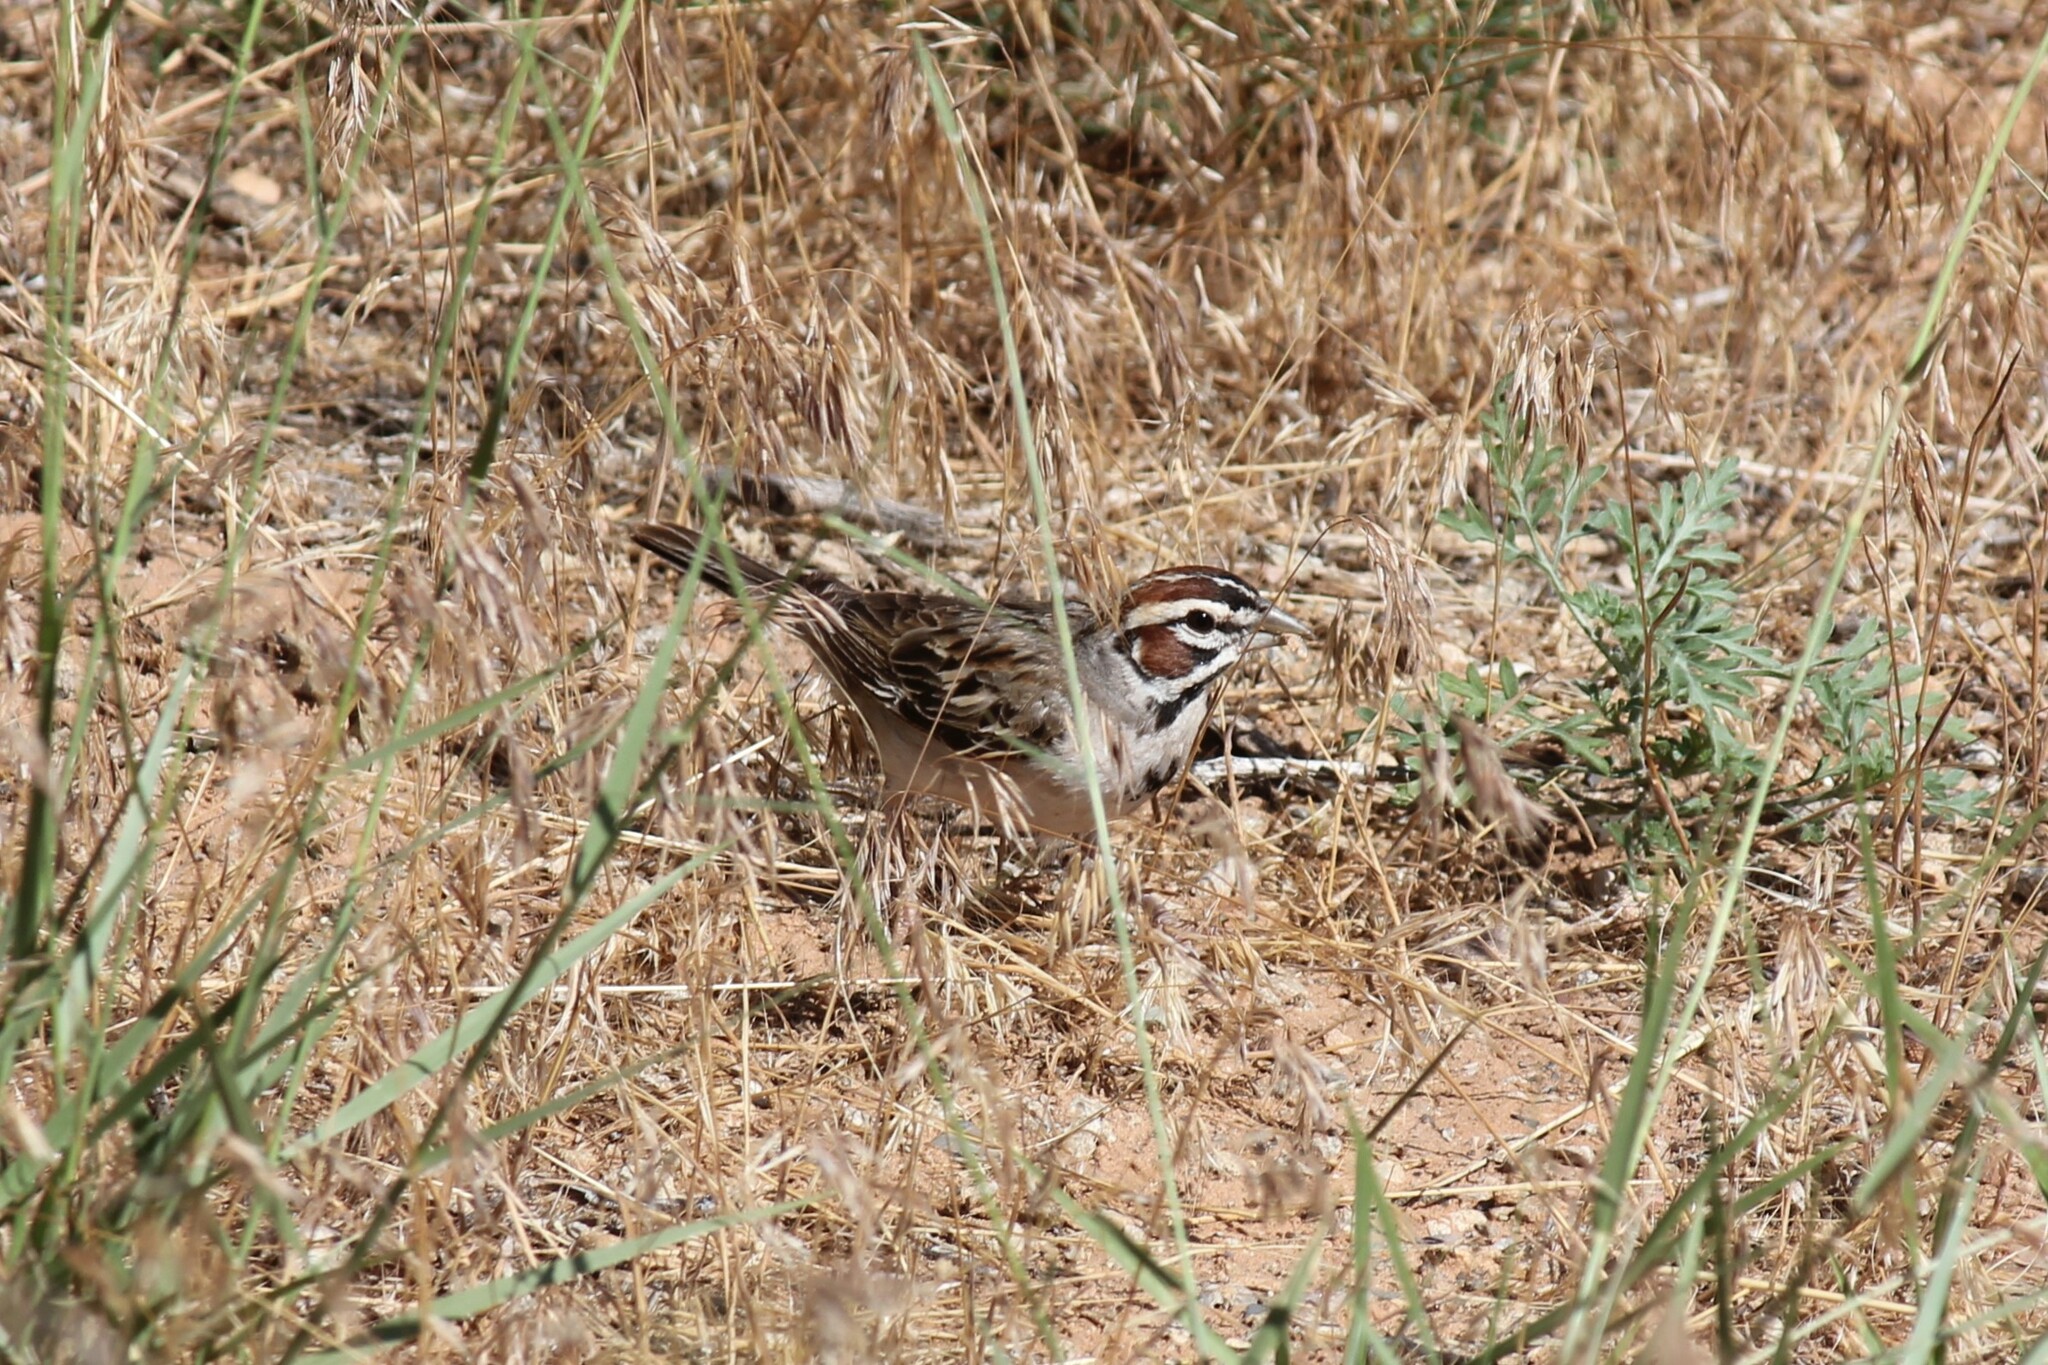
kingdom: Animalia
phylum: Chordata
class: Aves
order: Passeriformes
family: Passerellidae
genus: Chondestes
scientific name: Chondestes grammacus
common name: Lark sparrow
